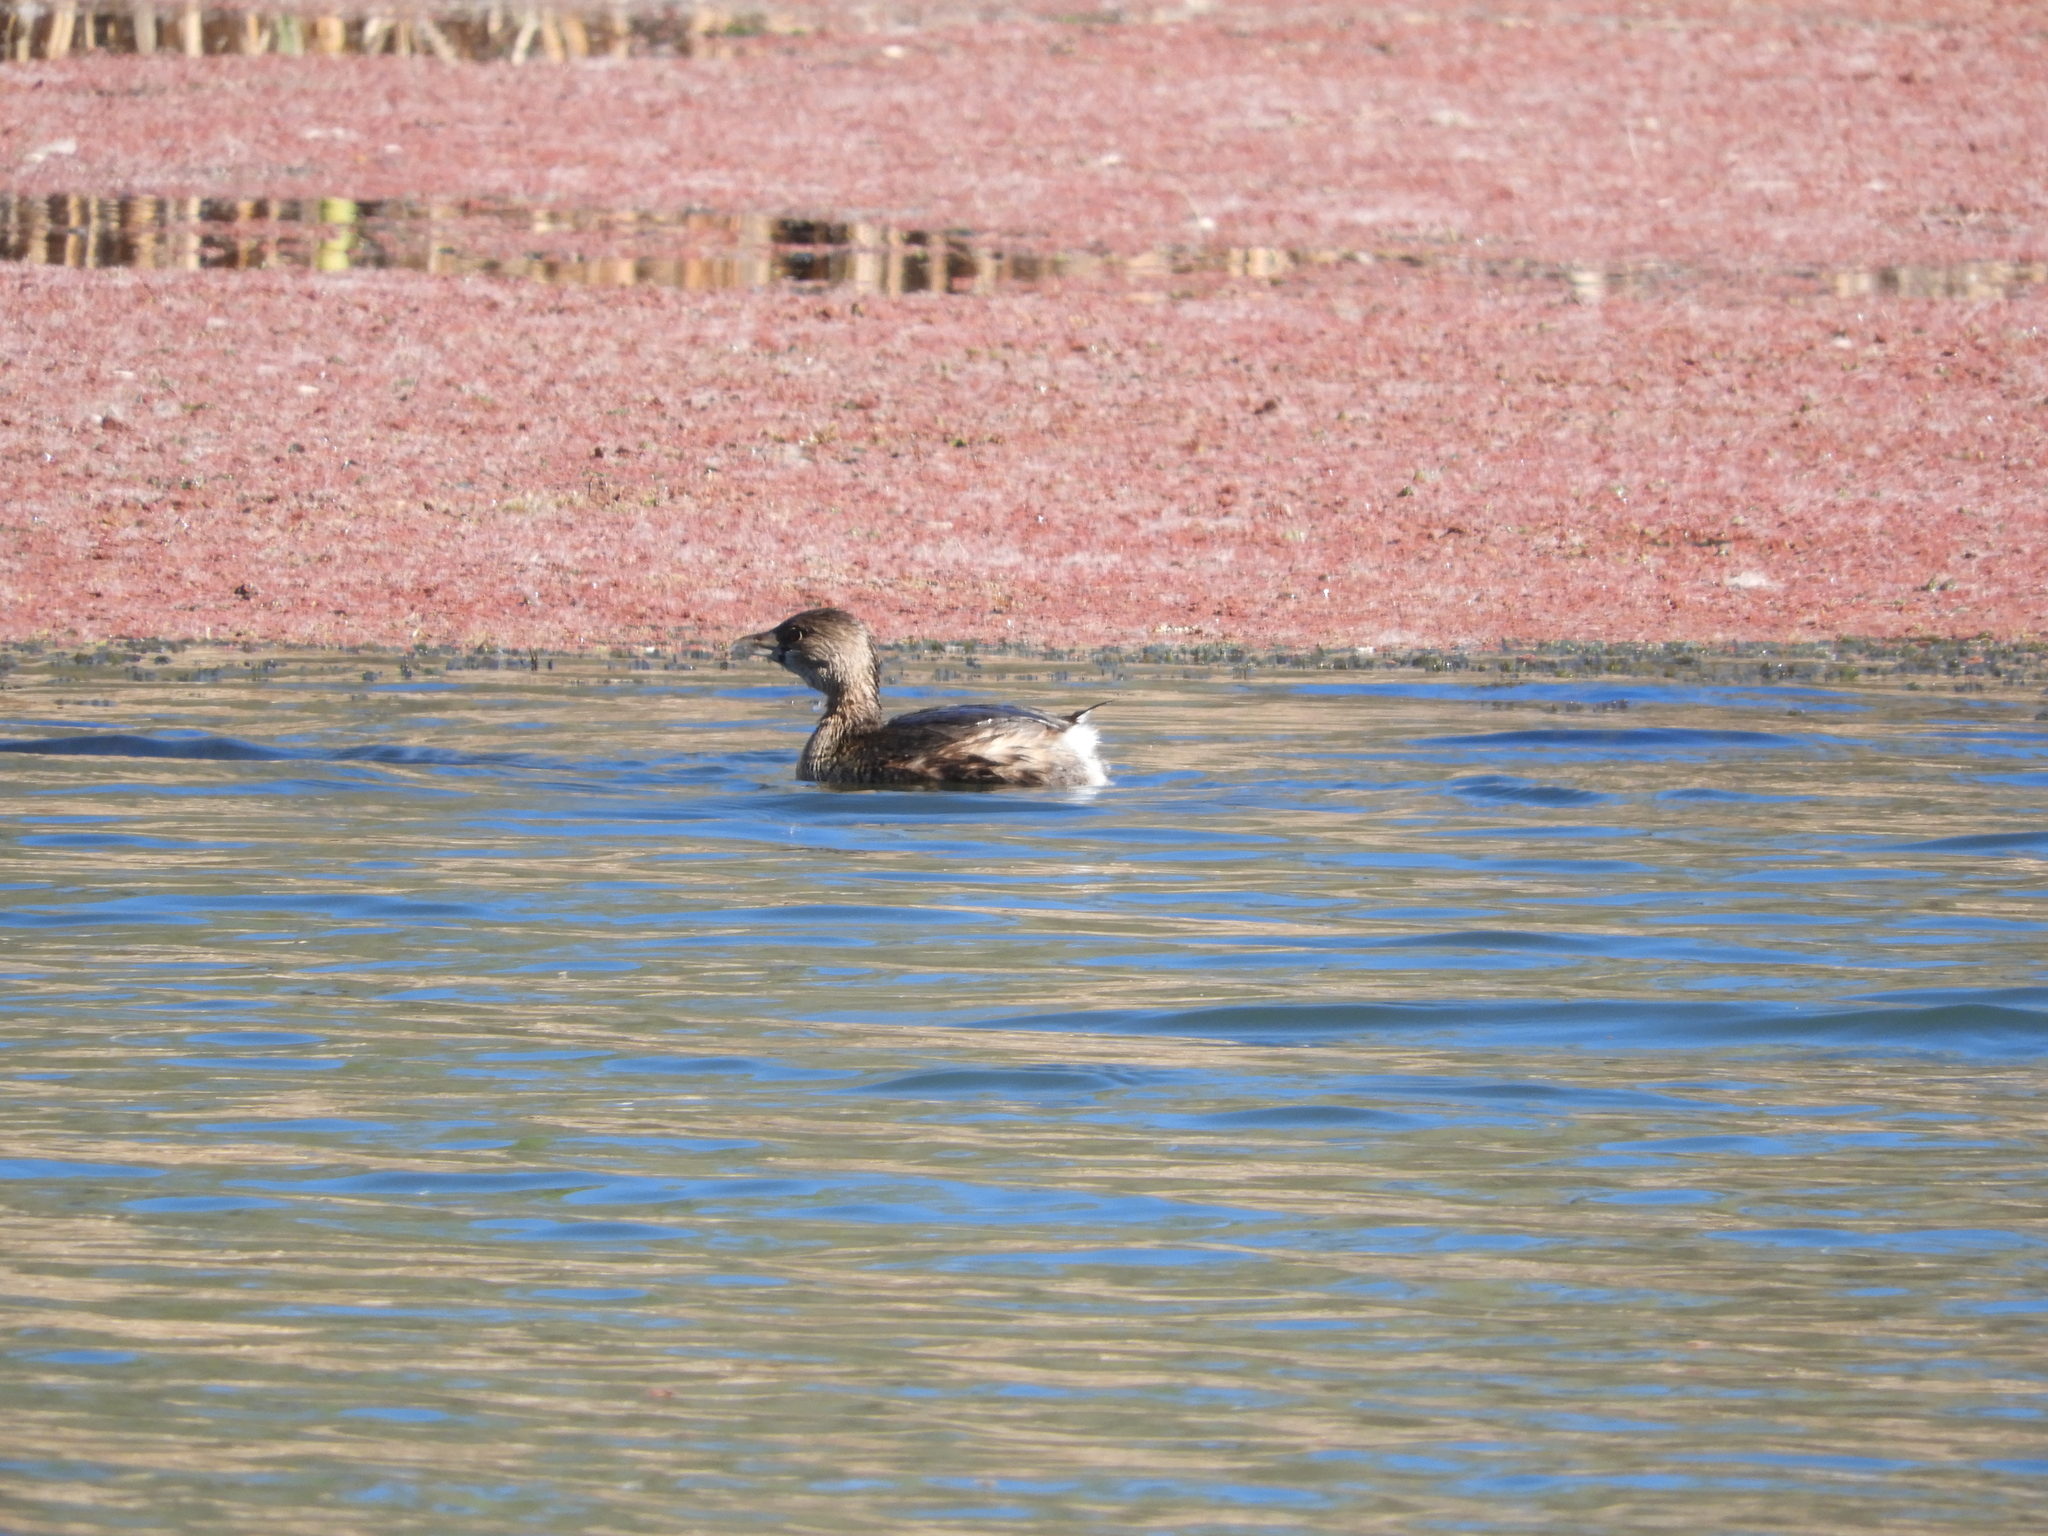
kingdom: Animalia
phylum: Chordata
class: Aves
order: Podicipediformes
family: Podicipedidae
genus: Podilymbus
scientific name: Podilymbus podiceps
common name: Pied-billed grebe
